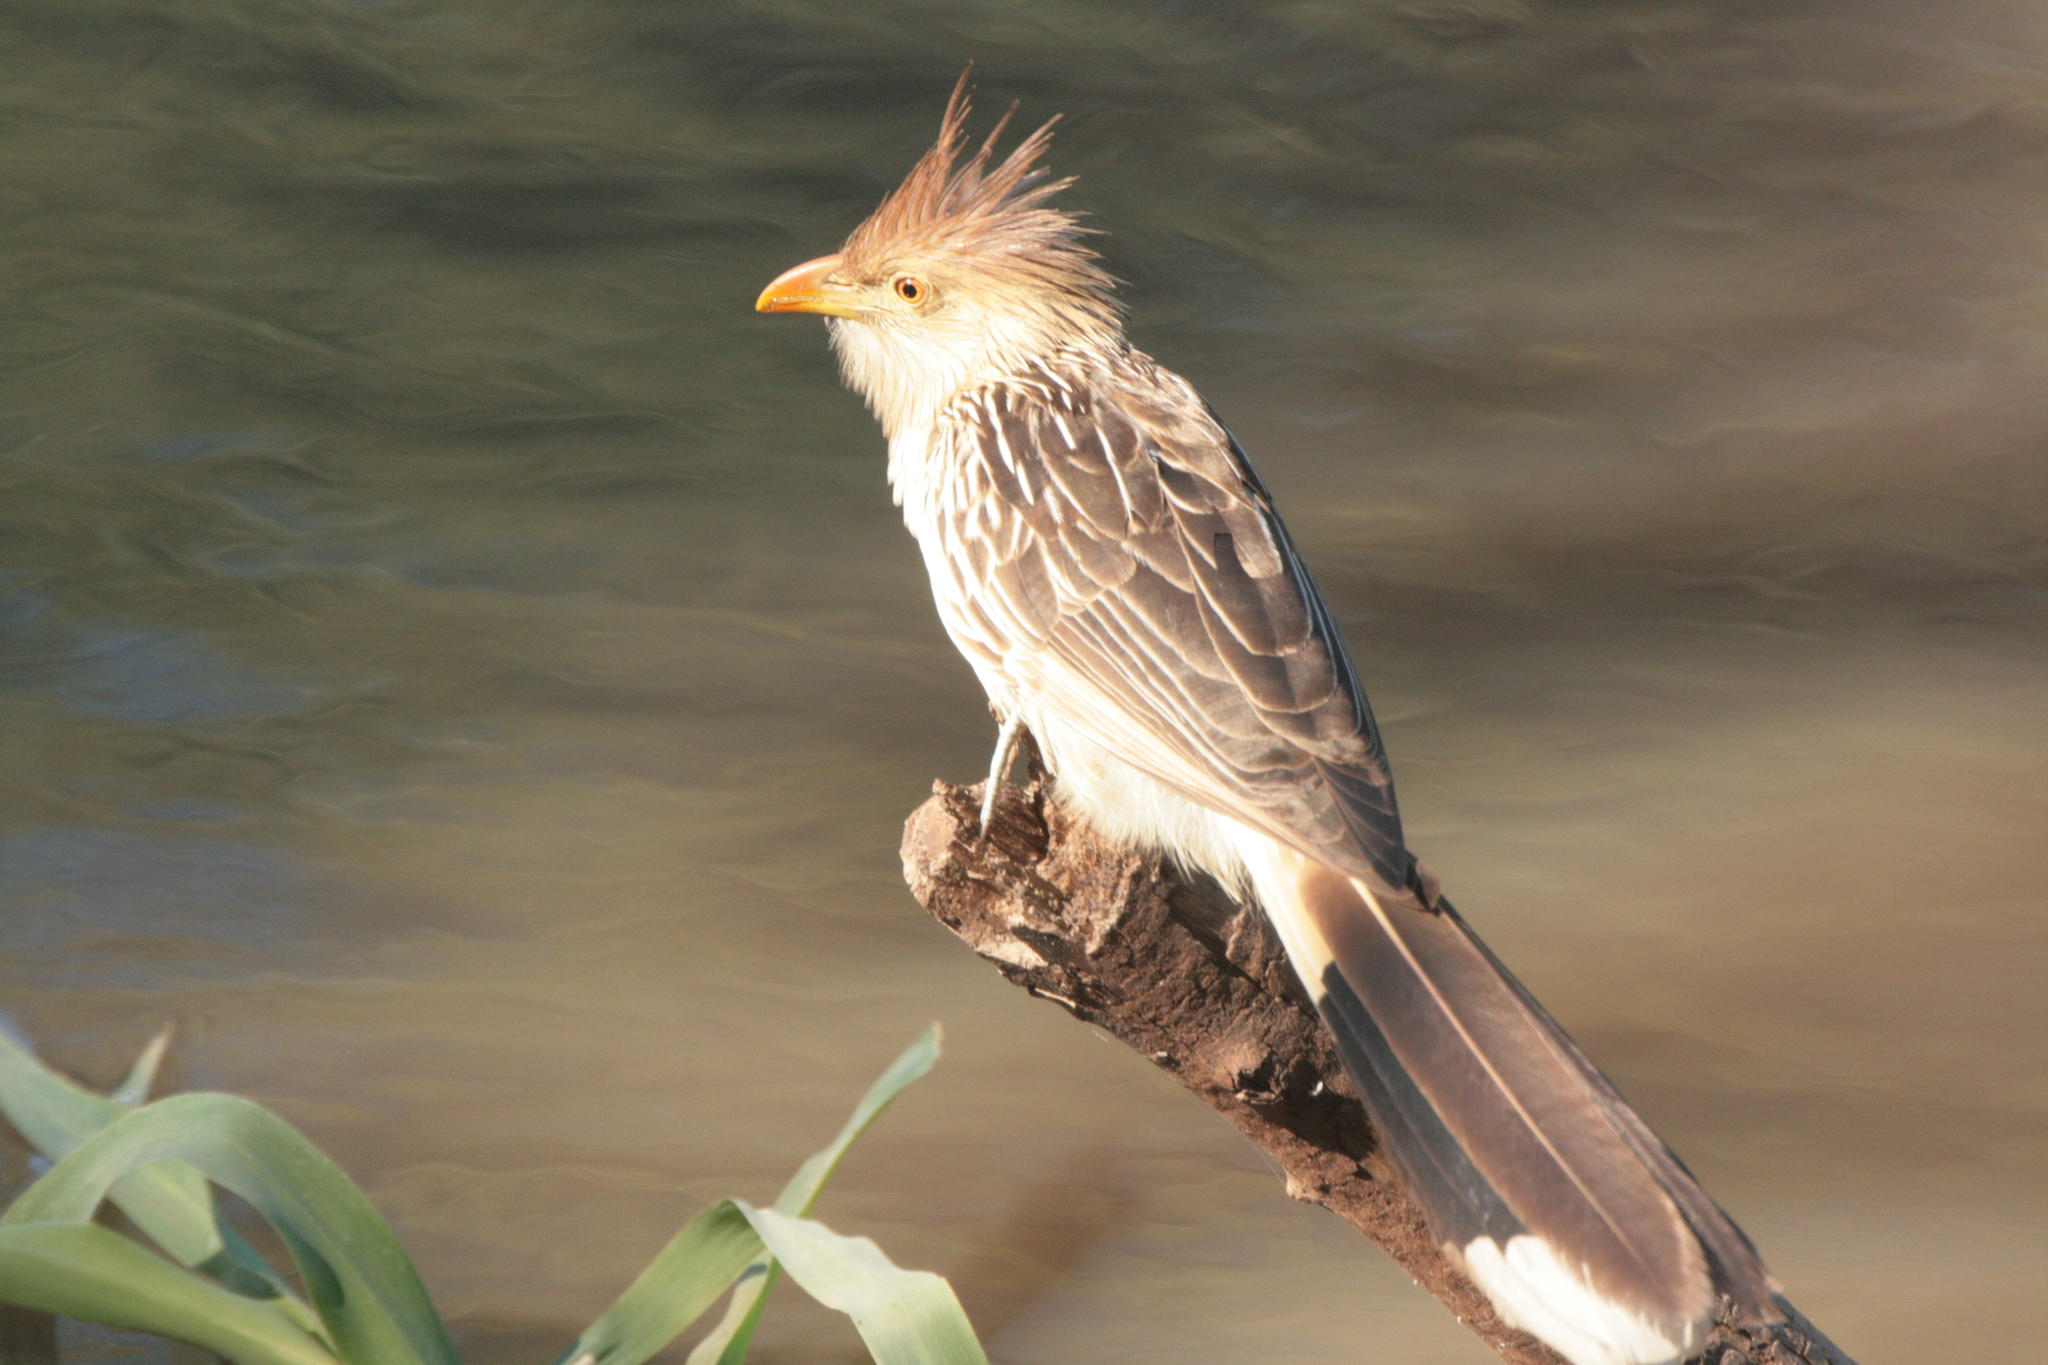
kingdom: Animalia
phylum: Chordata
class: Aves
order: Cuculiformes
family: Cuculidae
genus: Guira
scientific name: Guira guira
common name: Guira cuckoo
